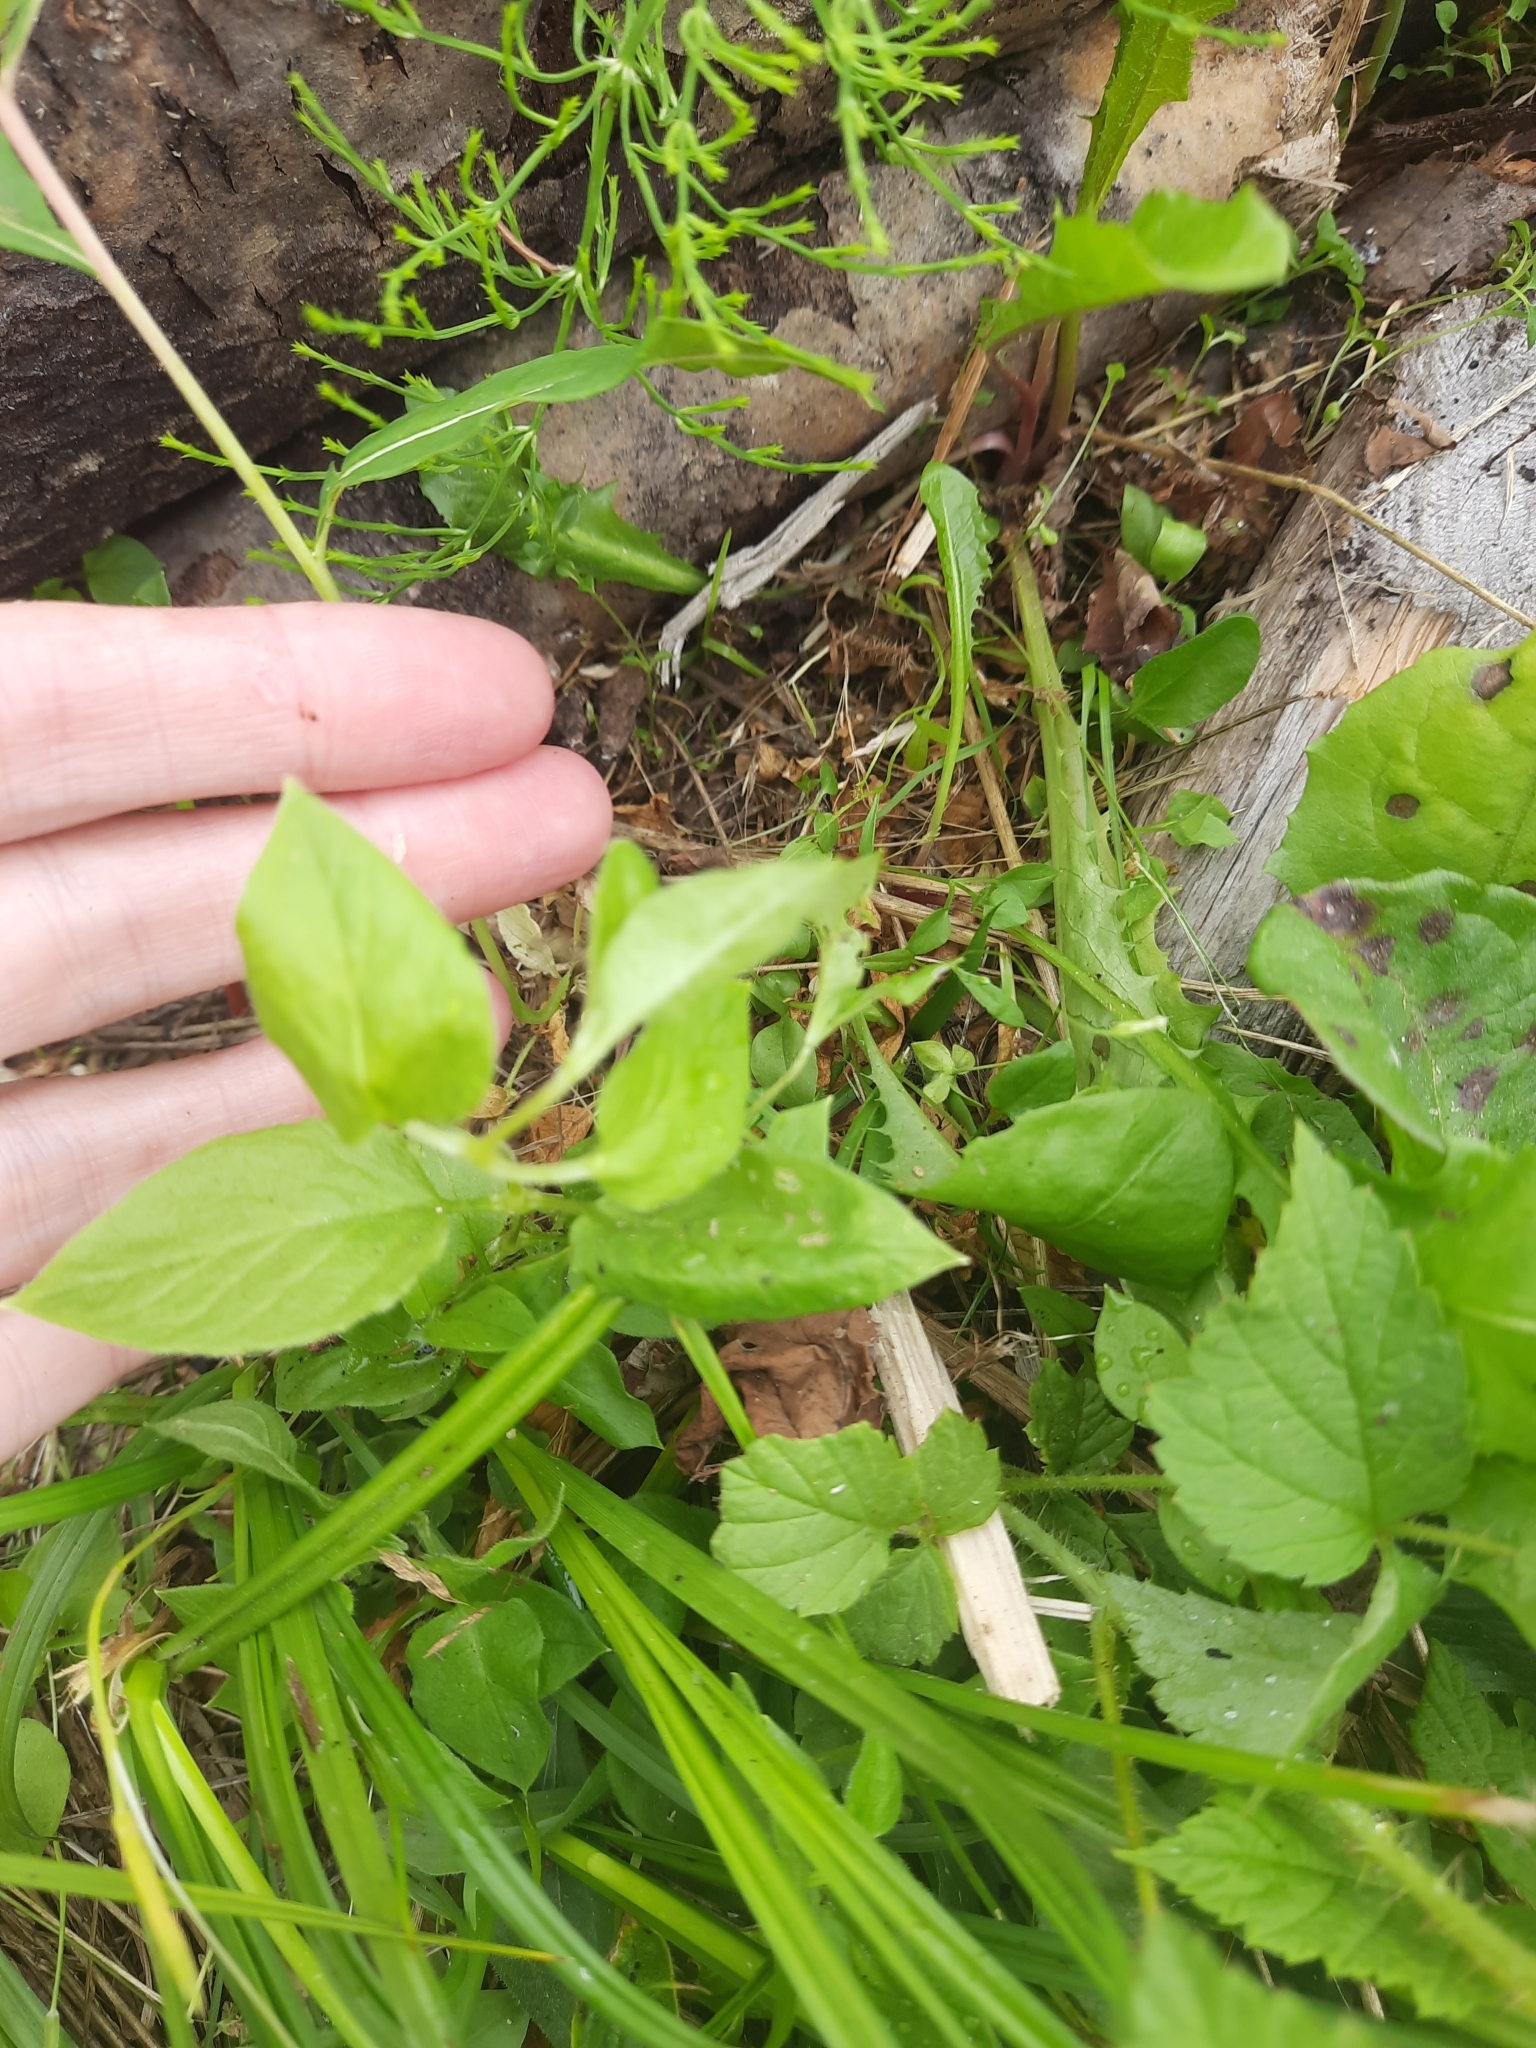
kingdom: Plantae
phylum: Tracheophyta
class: Magnoliopsida
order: Caryophyllales
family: Caryophyllaceae
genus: Stellaria
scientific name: Stellaria bungeana
